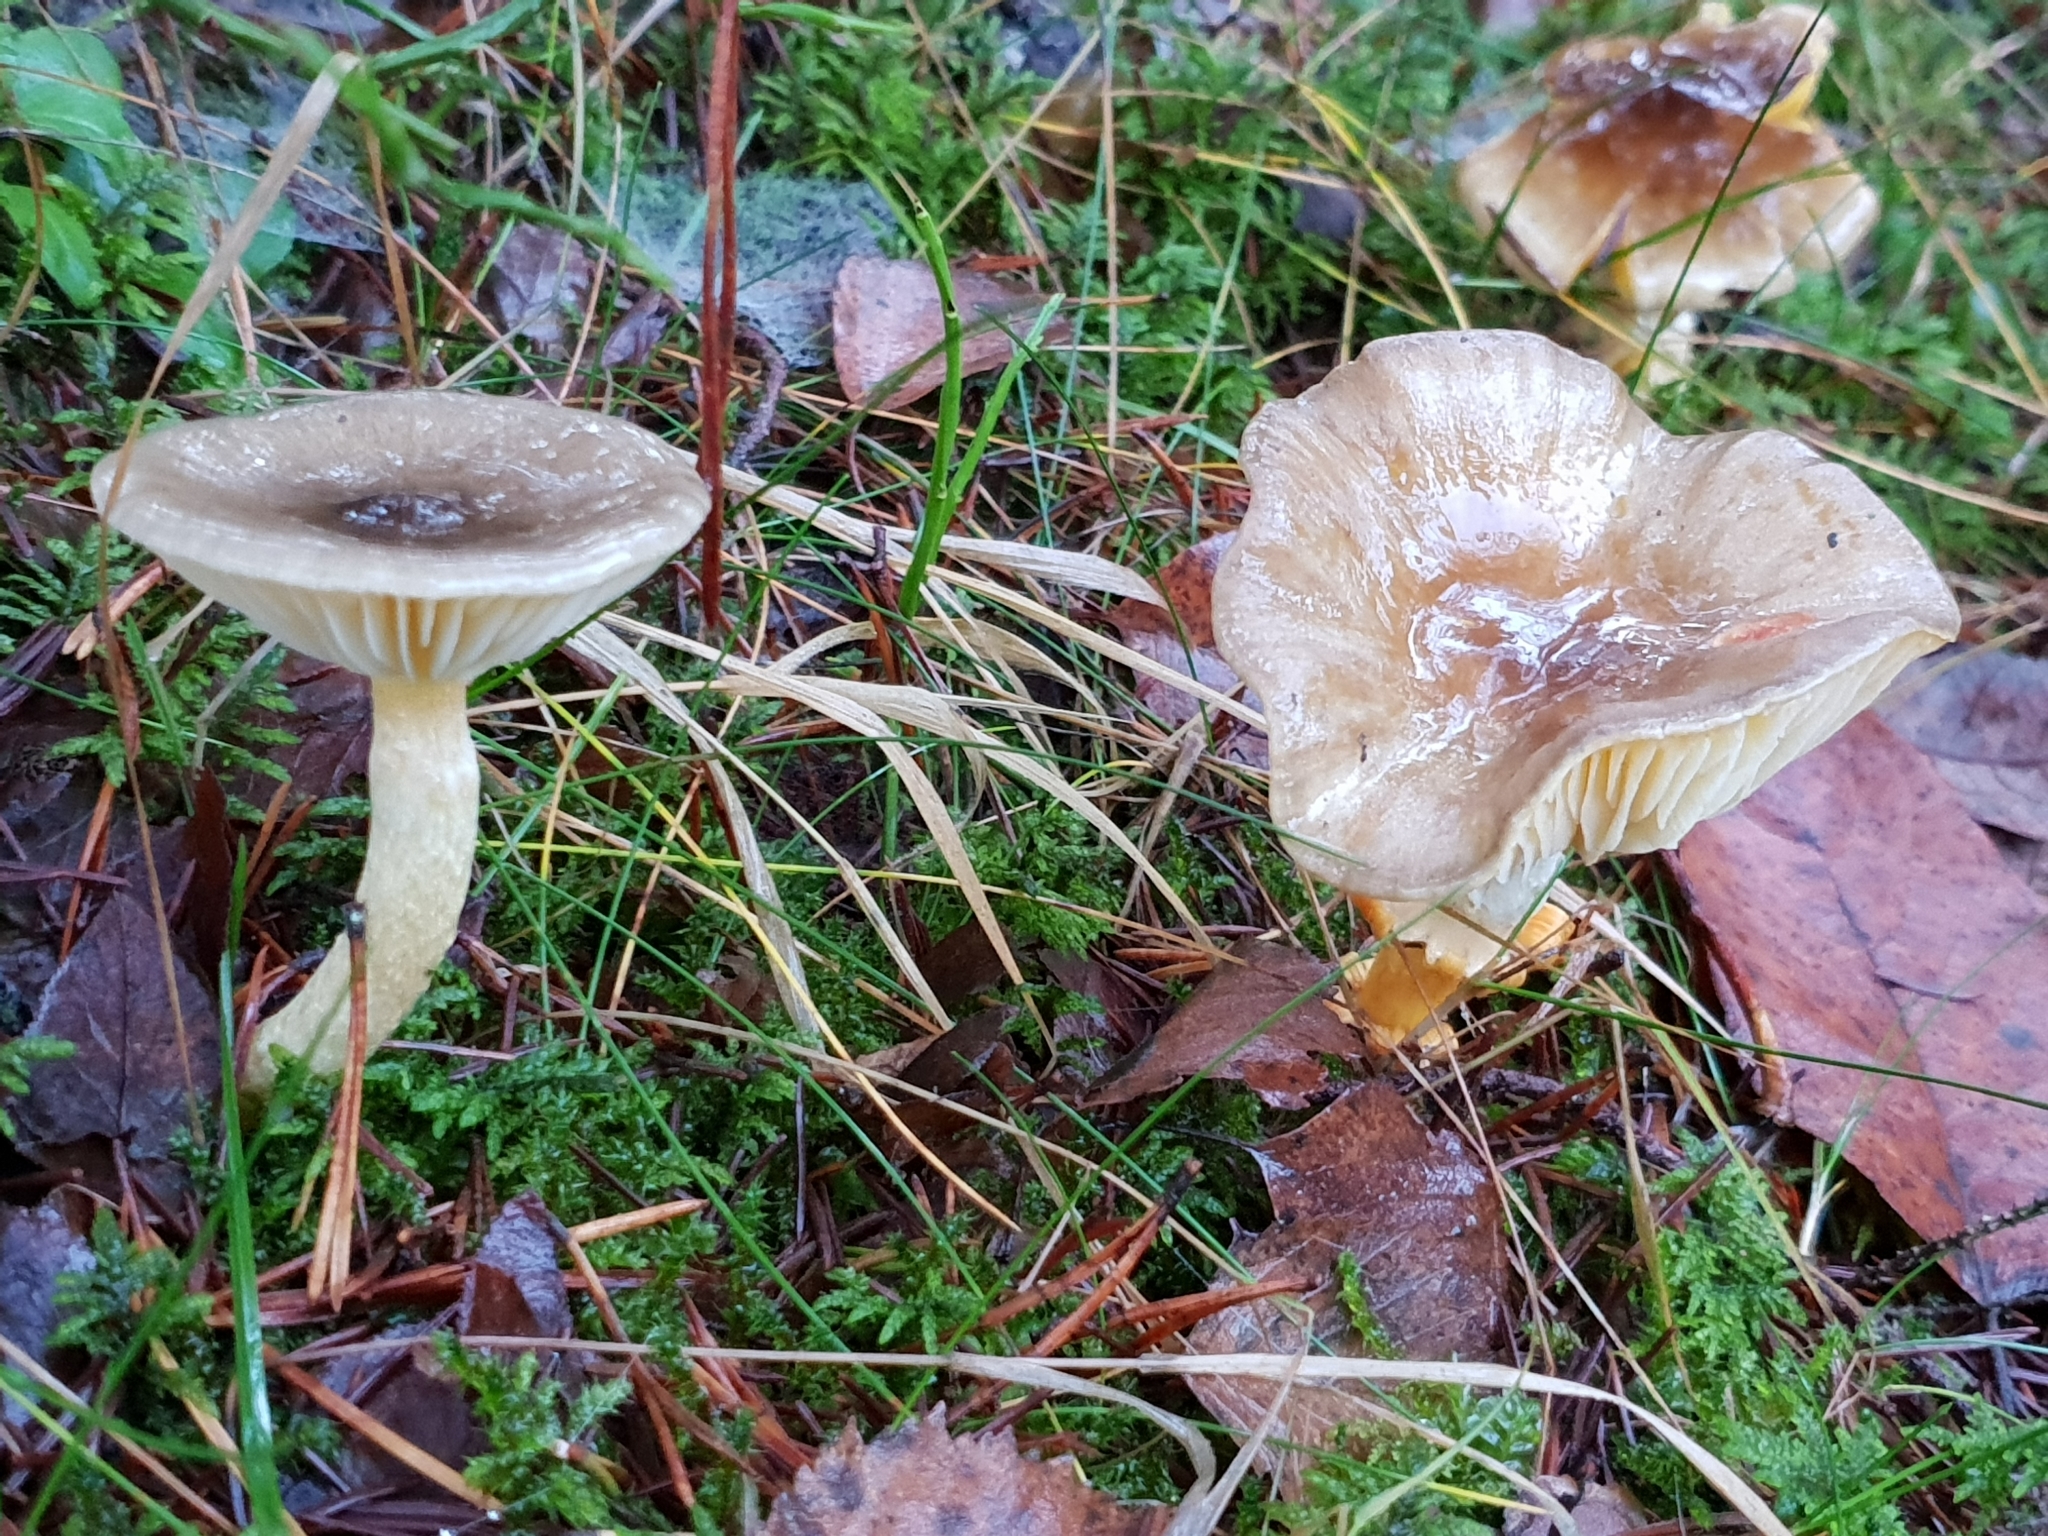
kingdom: Fungi
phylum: Basidiomycota
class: Agaricomycetes
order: Agaricales
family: Hygrophoraceae
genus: Hygrophorus
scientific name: Hygrophorus hypothejus
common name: Herald of winter
